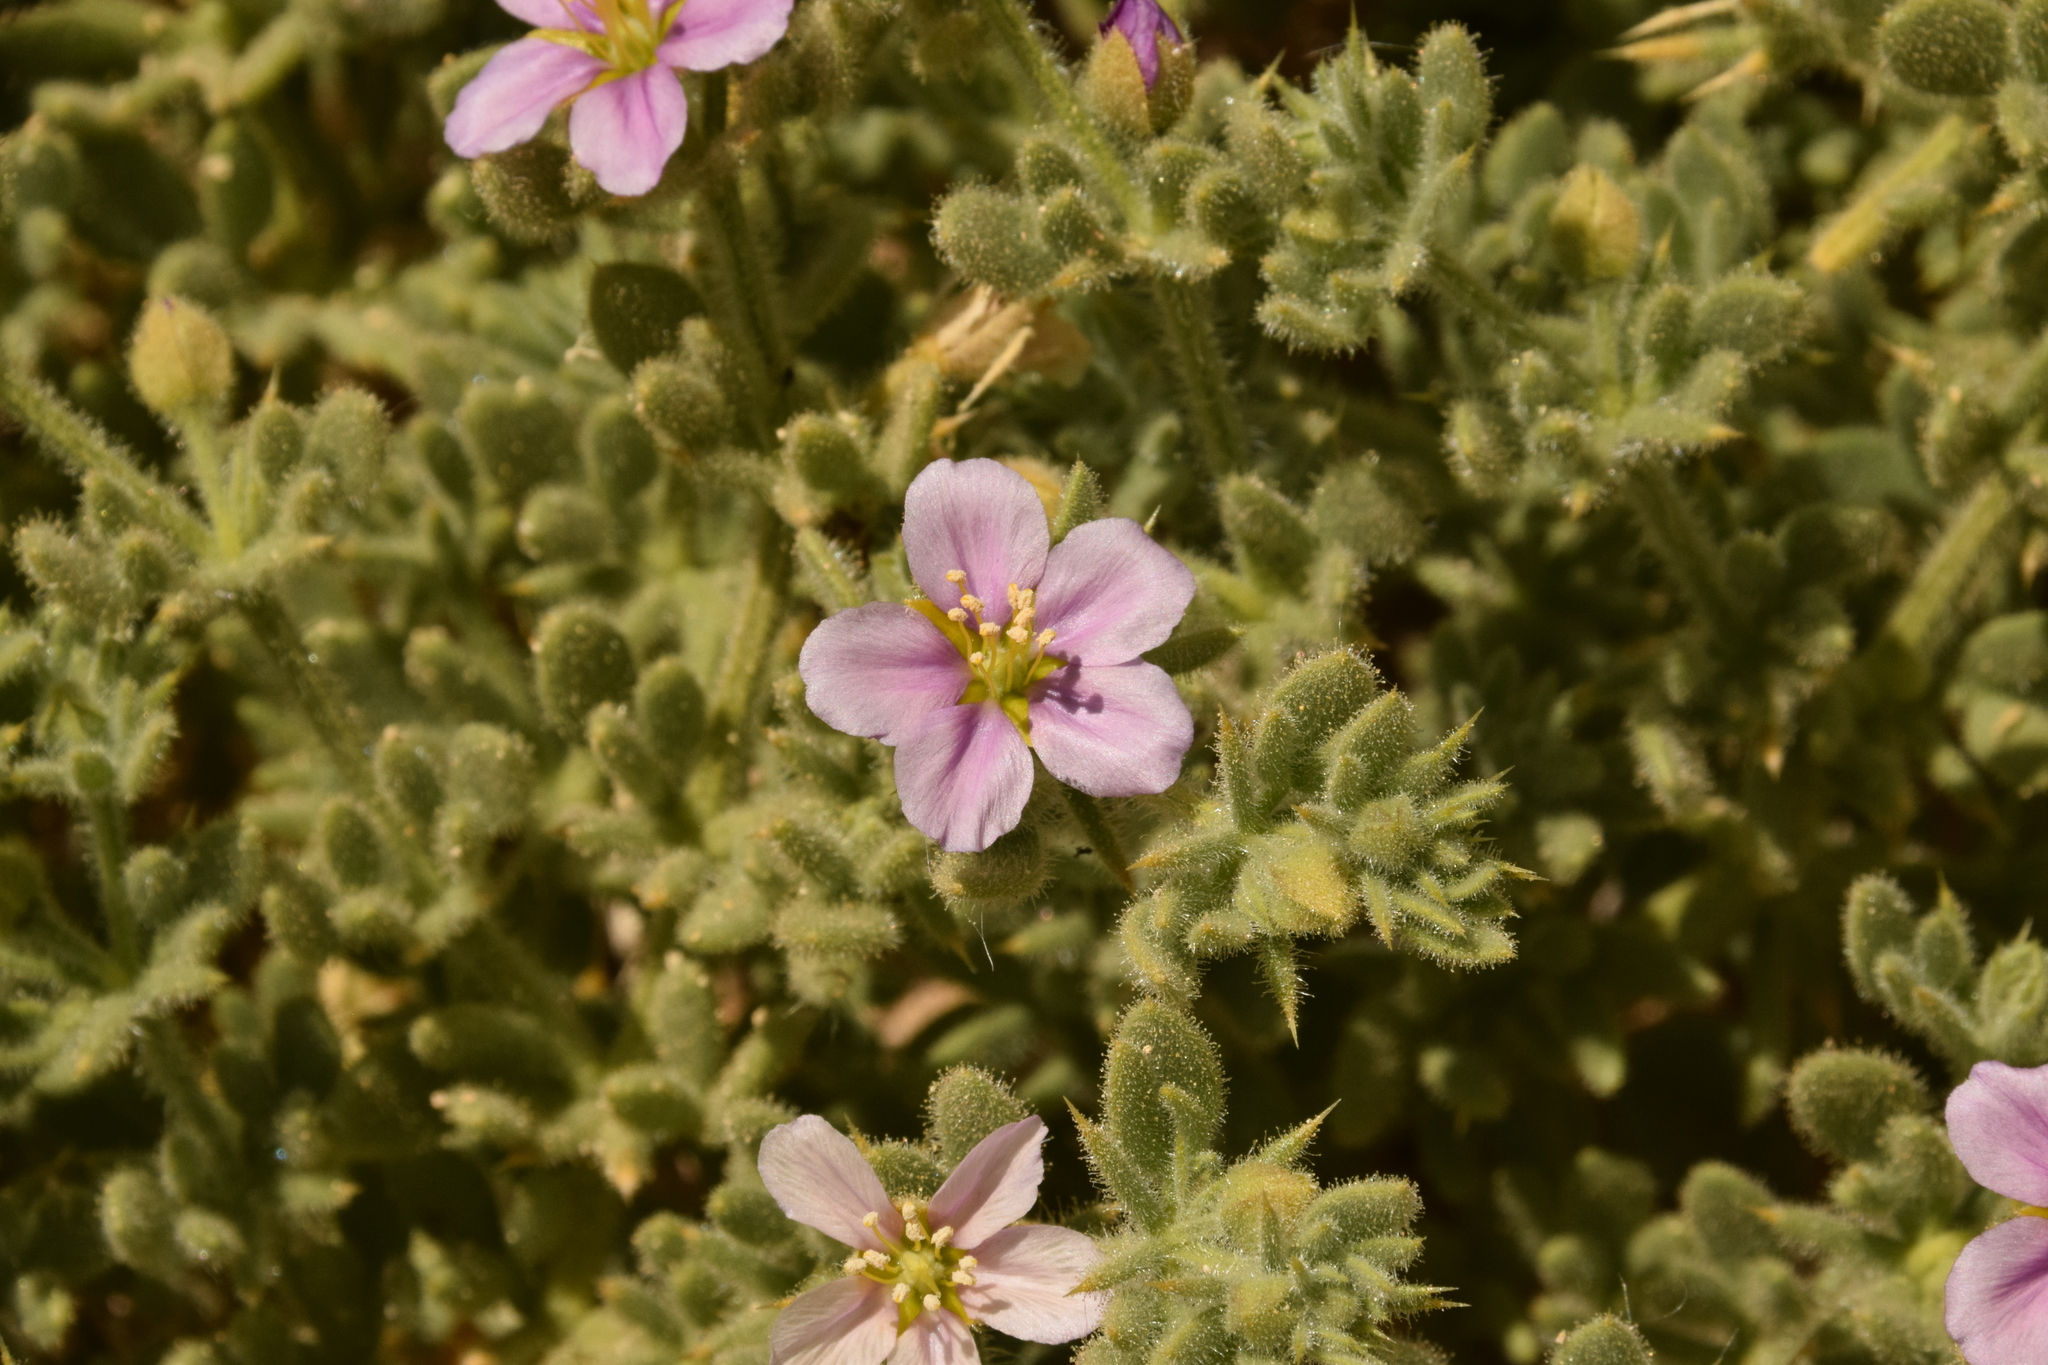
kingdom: Plantae
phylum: Tracheophyta
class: Magnoliopsida
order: Zygophyllales
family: Zygophyllaceae
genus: Fagonia
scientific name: Fagonia mollis
